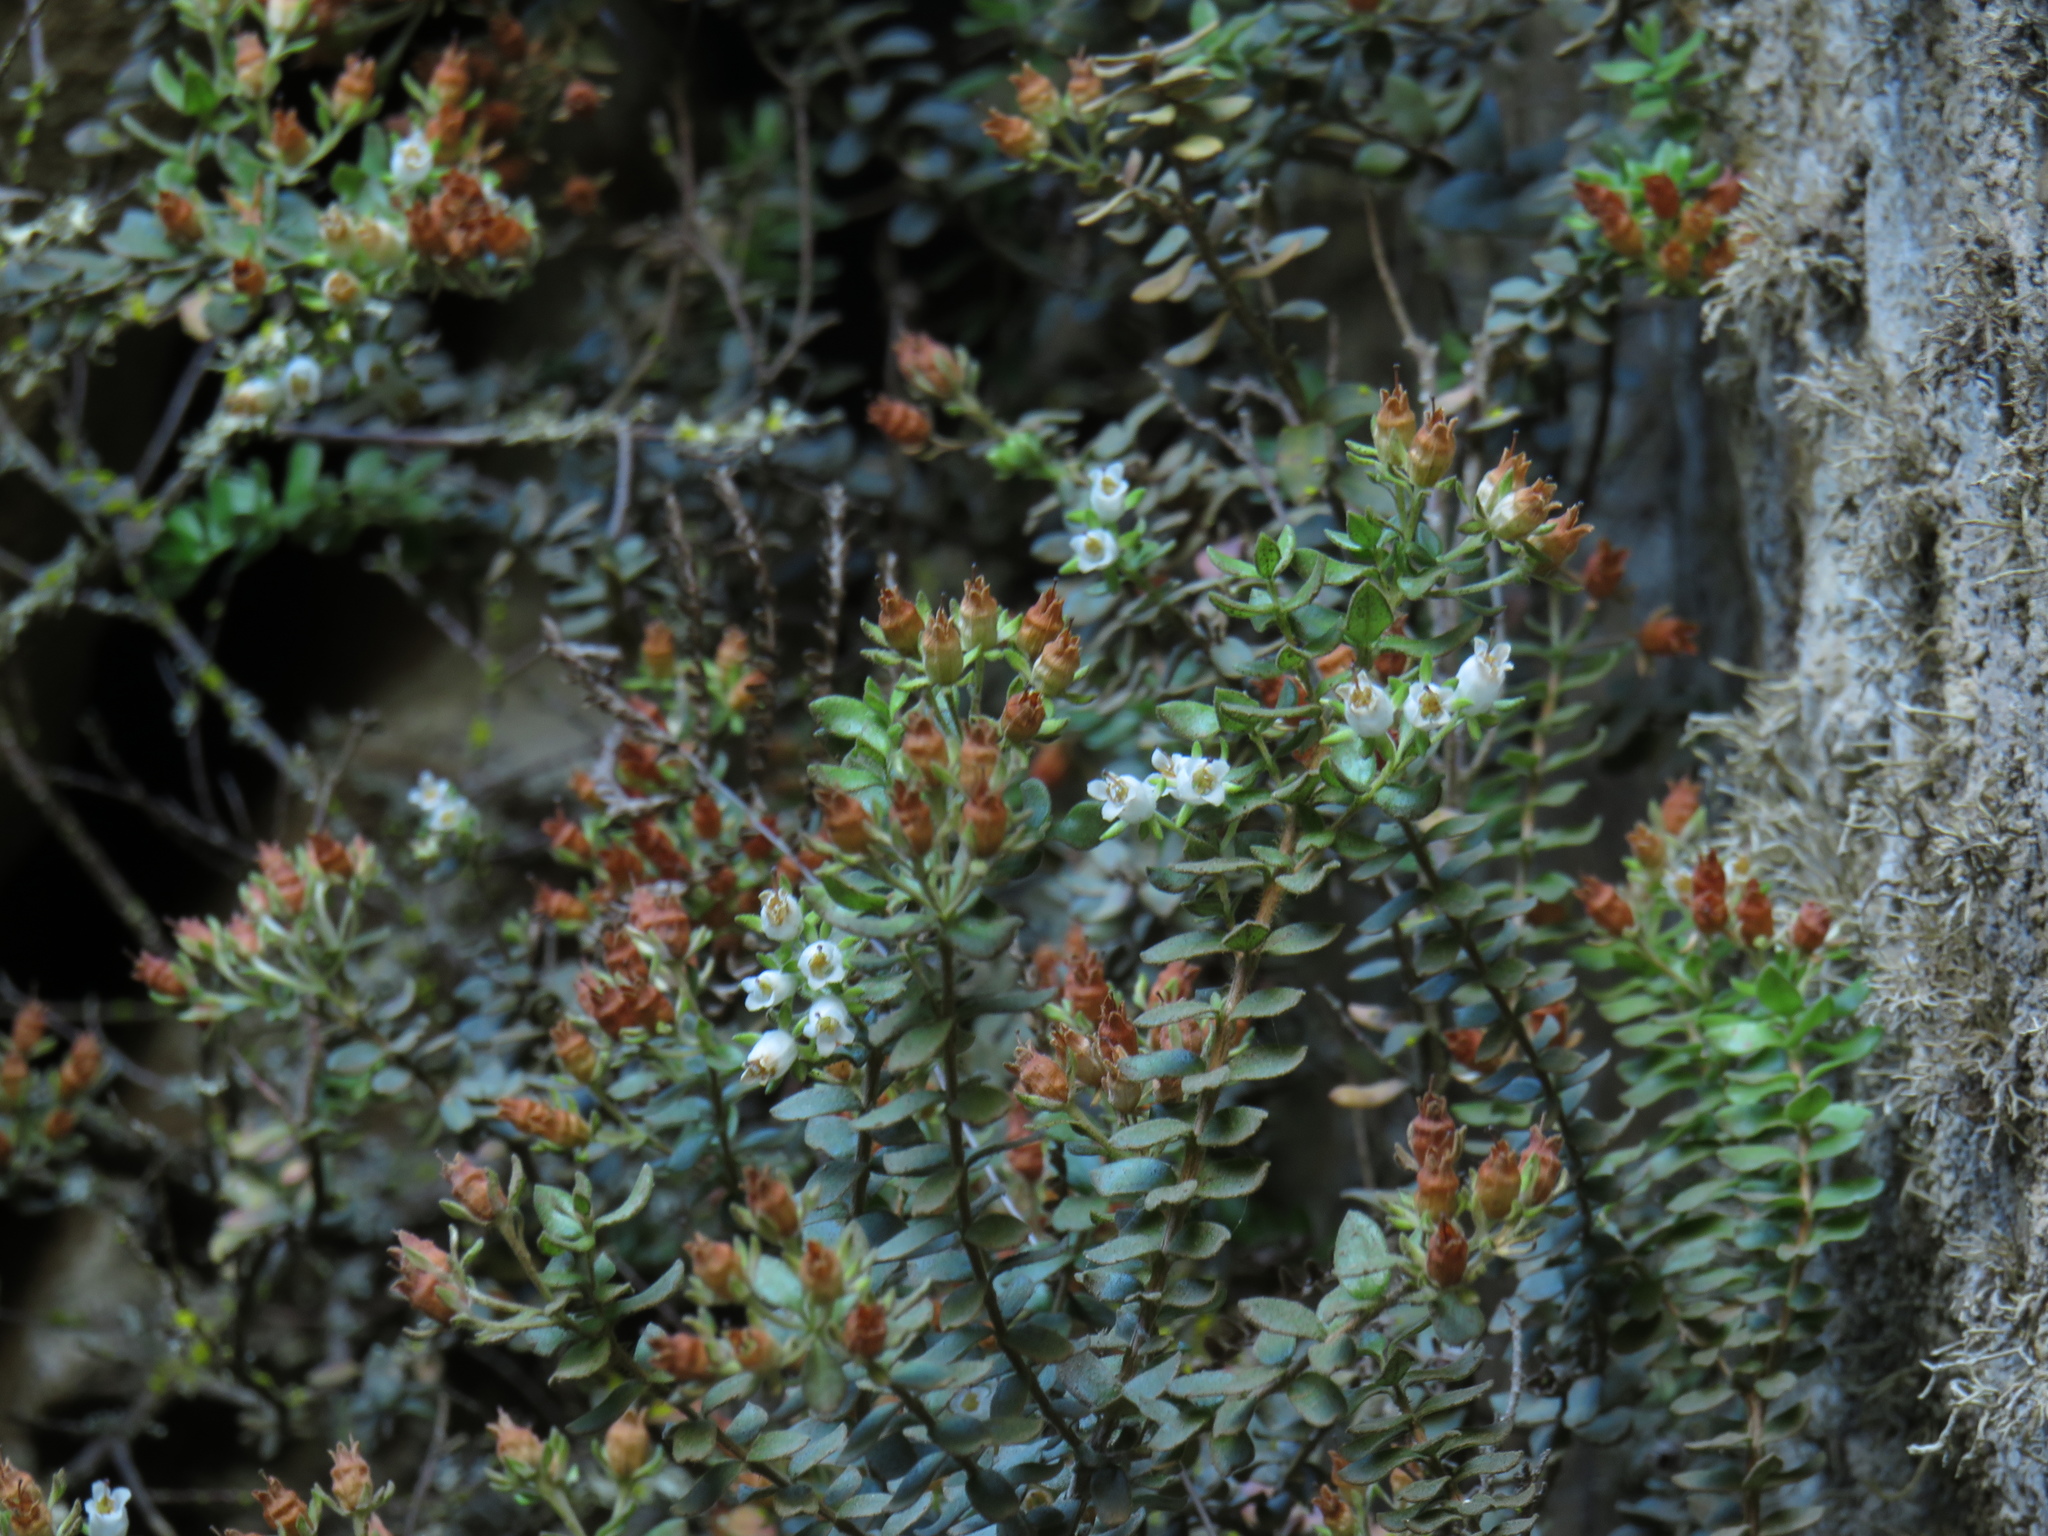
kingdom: Plantae
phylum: Tracheophyta
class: Magnoliopsida
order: Ericales
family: Ericaceae
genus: Erica
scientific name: Erica marifolia
